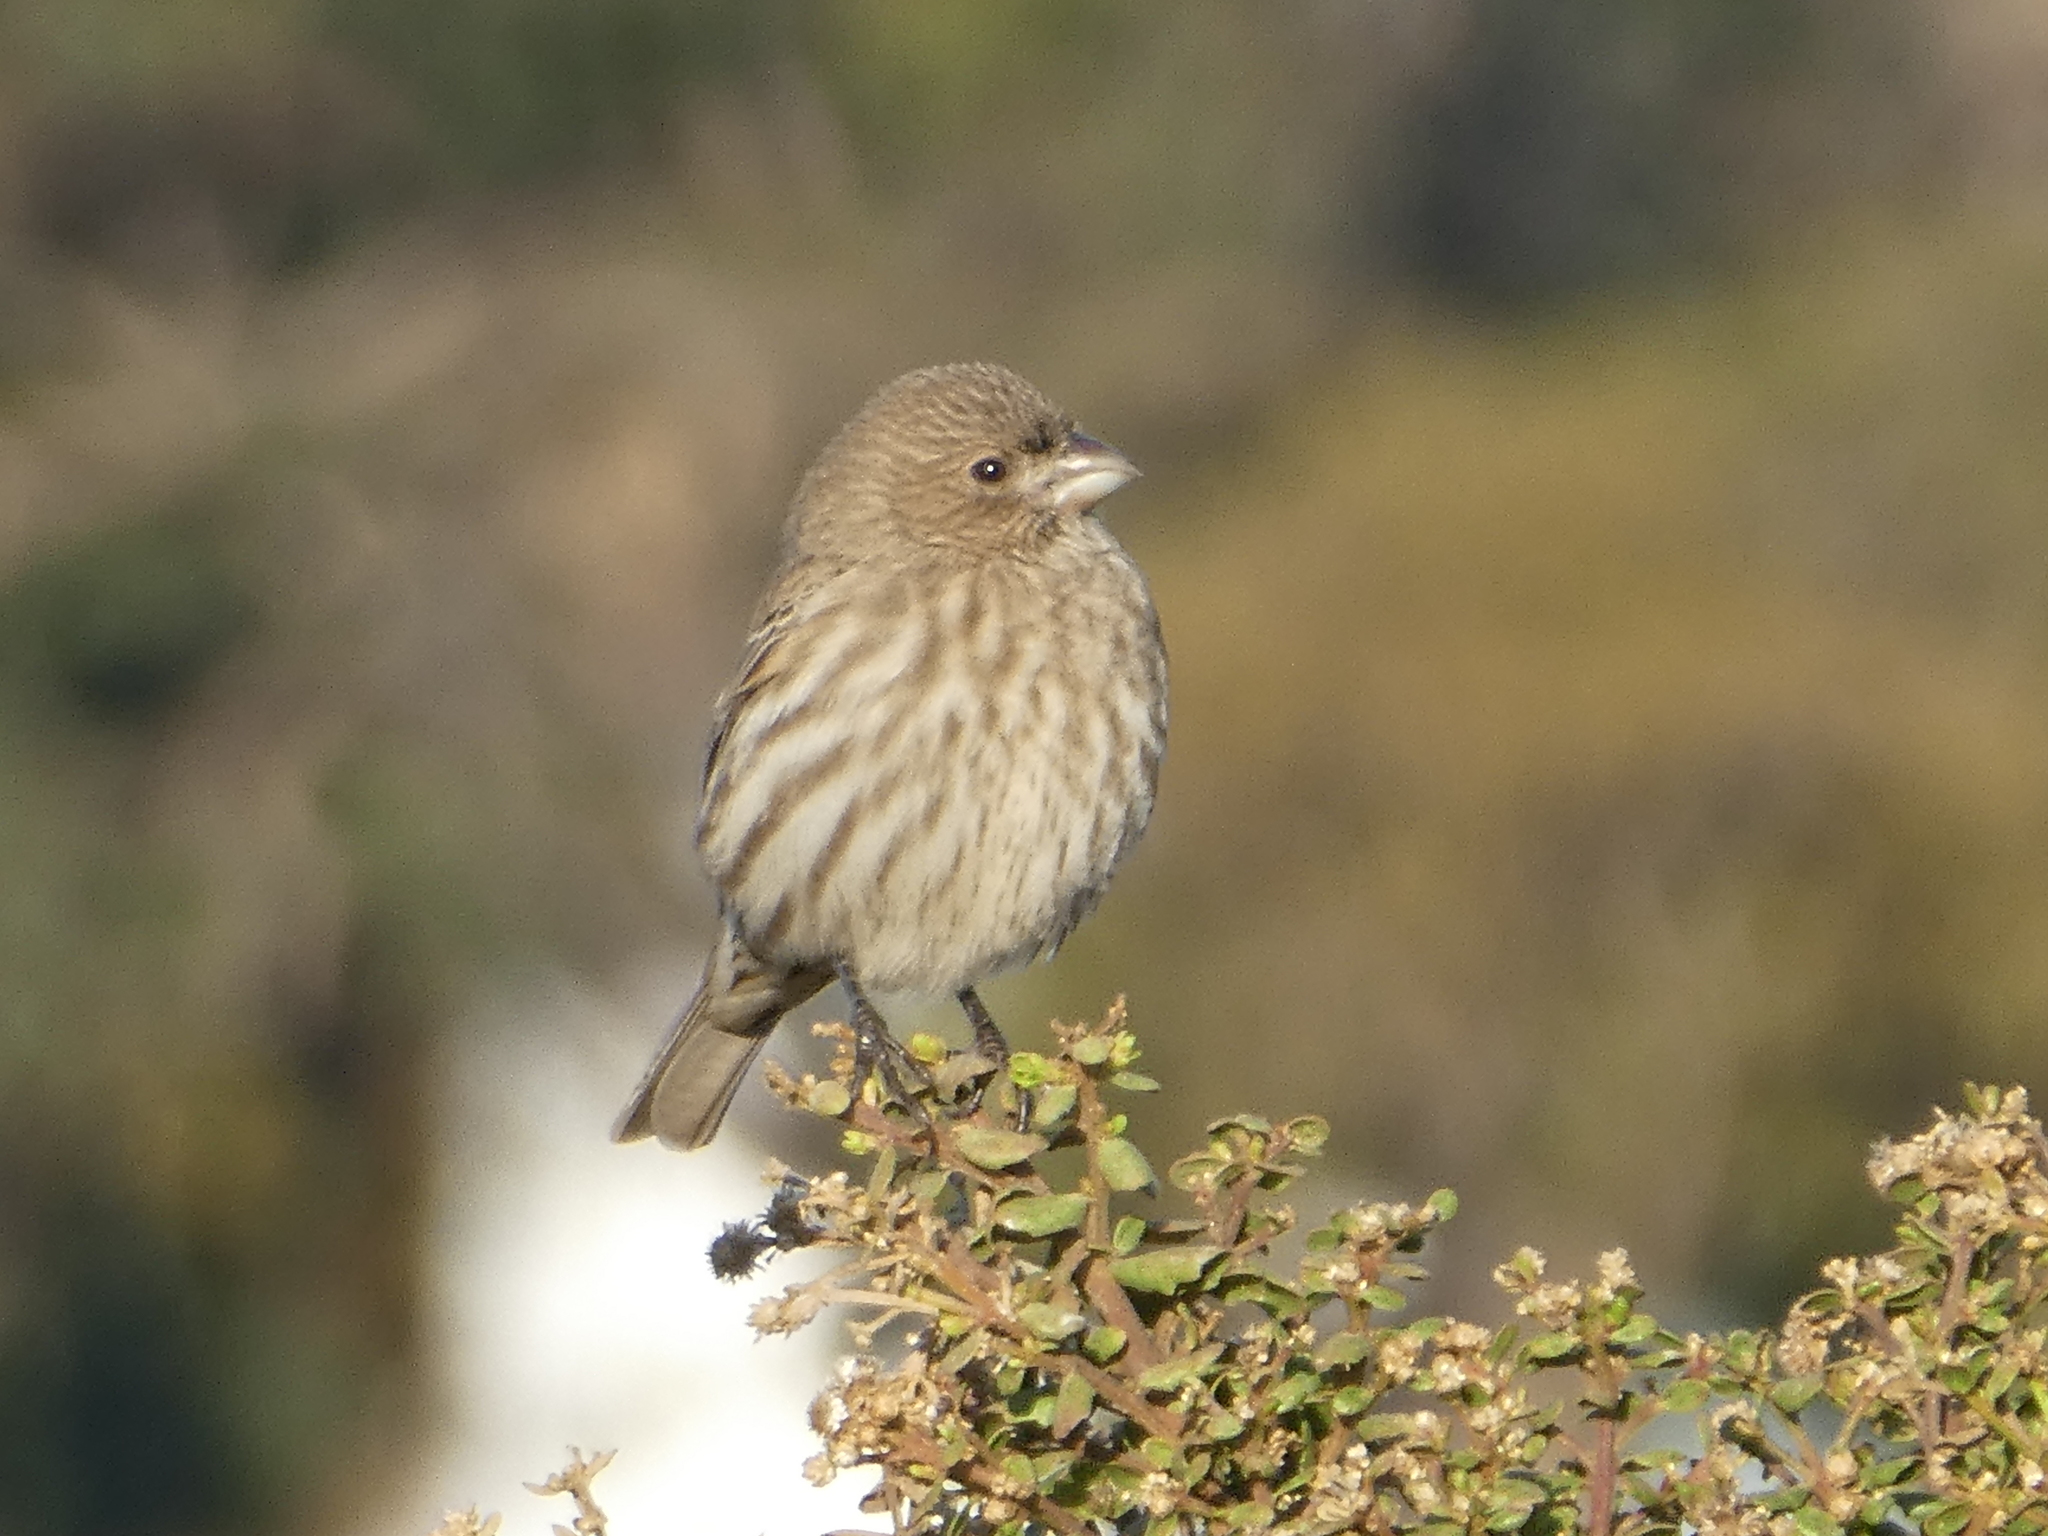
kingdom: Animalia
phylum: Chordata
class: Aves
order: Passeriformes
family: Fringillidae
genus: Haemorhous
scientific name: Haemorhous mexicanus
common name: House finch
